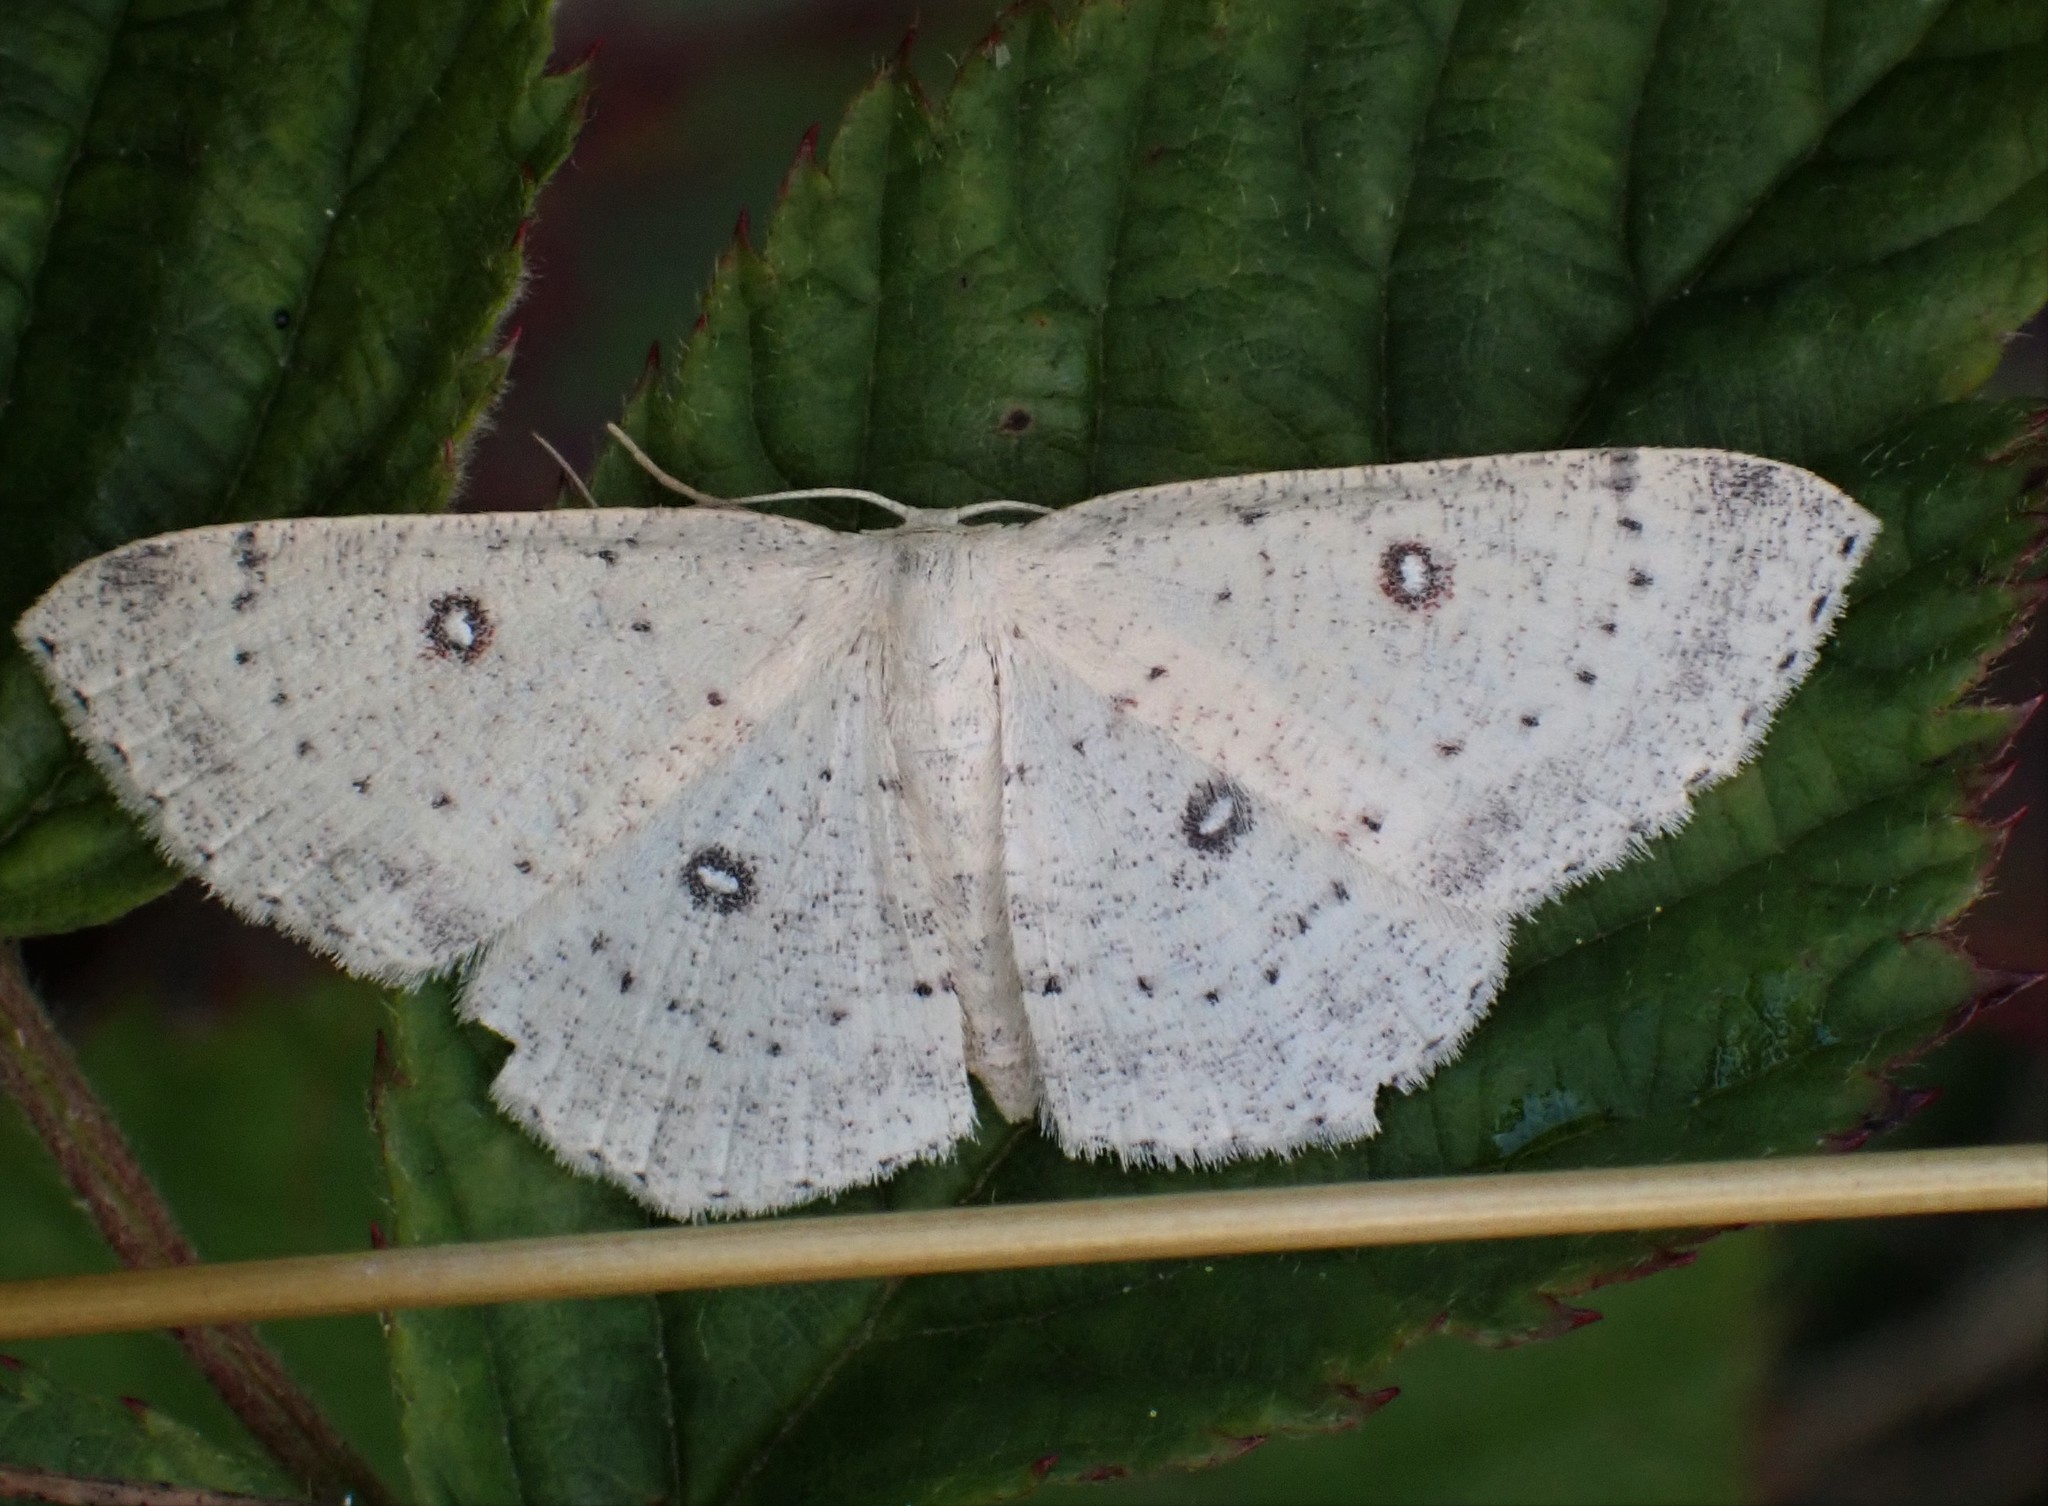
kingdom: Animalia
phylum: Arthropoda
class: Insecta
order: Lepidoptera
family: Geometridae
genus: Cyclophora
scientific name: Cyclophora albipunctata
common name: Birch mocha
